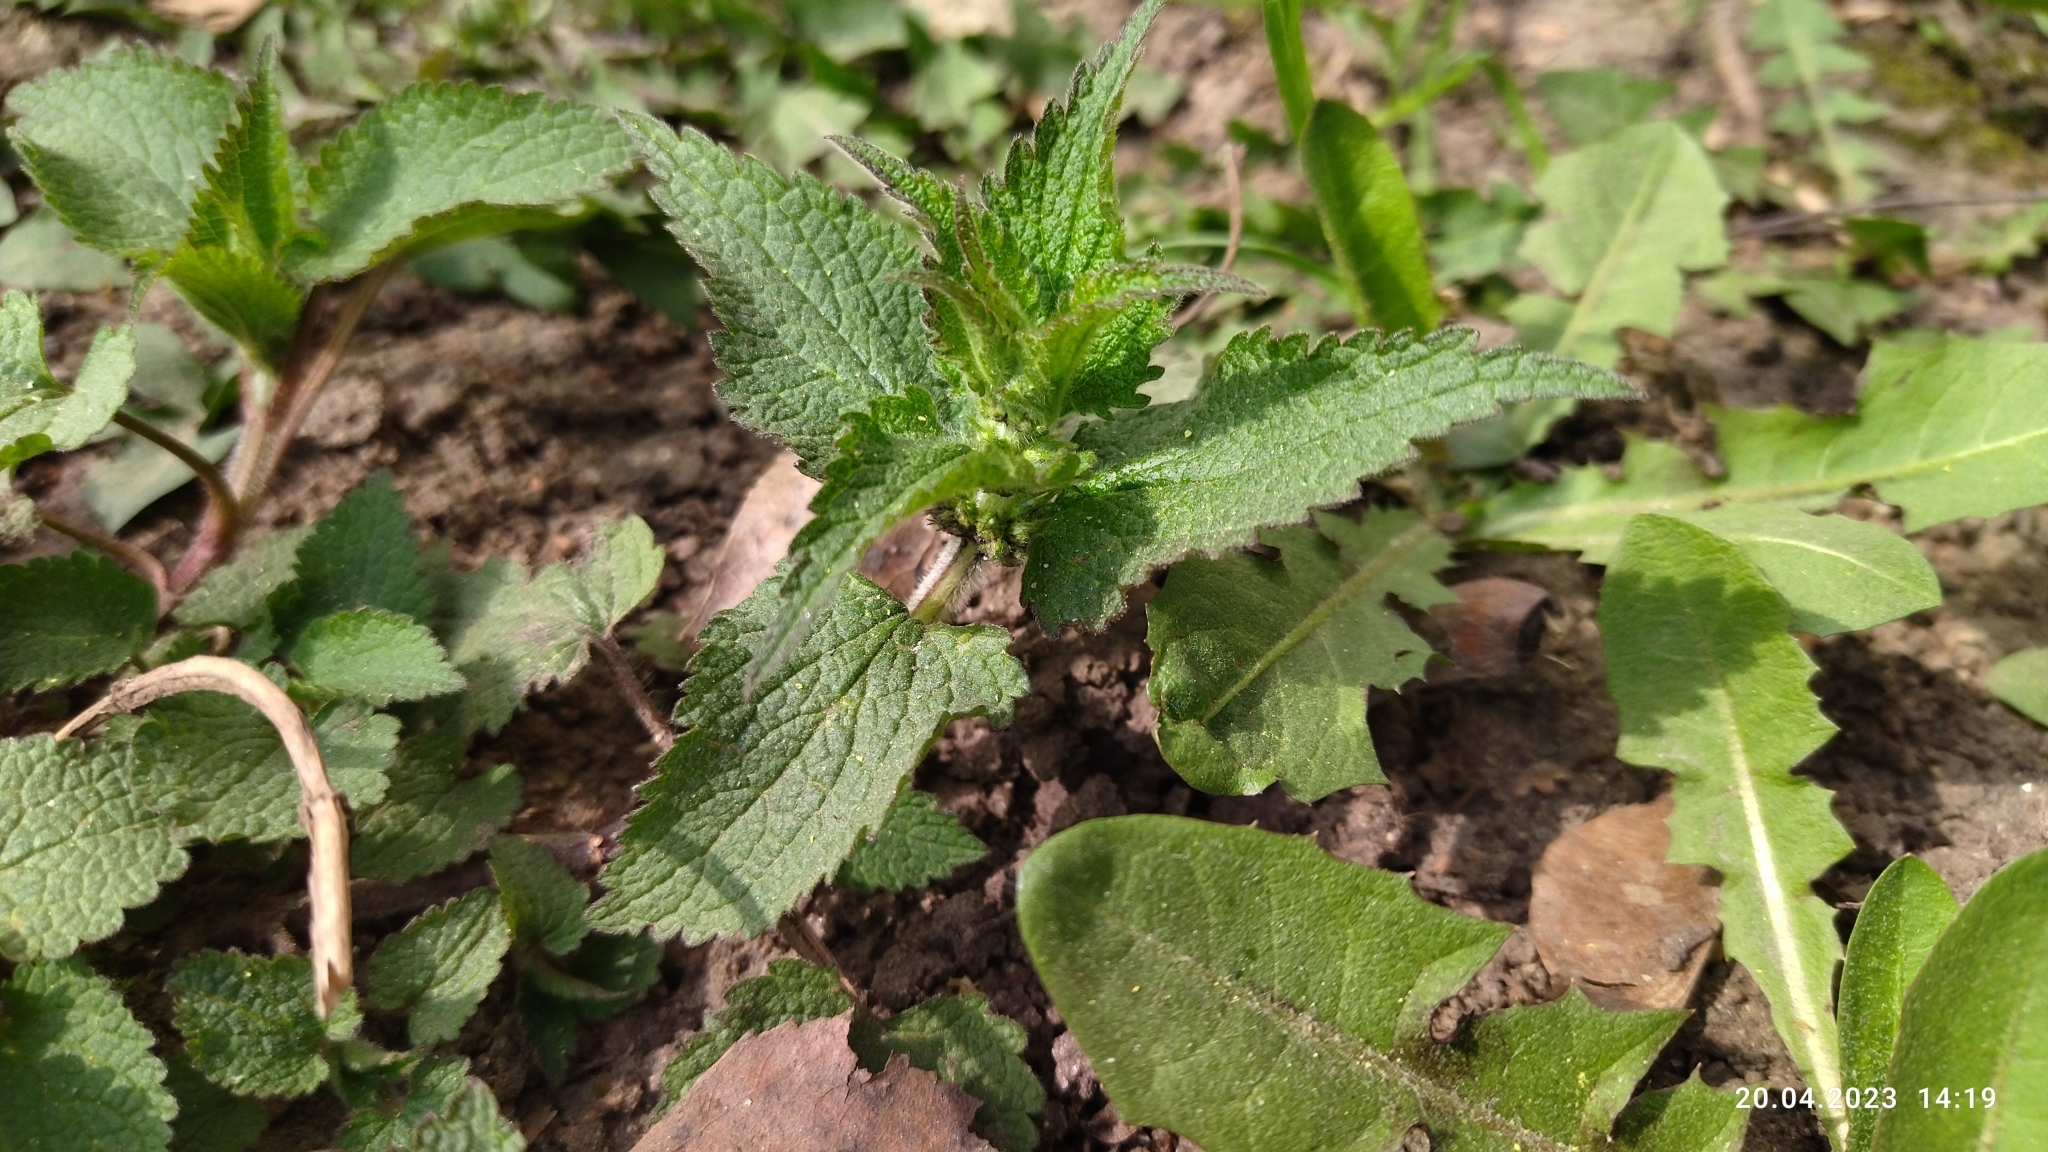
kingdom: Plantae
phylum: Tracheophyta
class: Magnoliopsida
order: Lamiales
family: Lamiaceae
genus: Lamium
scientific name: Lamium album
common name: White dead-nettle
